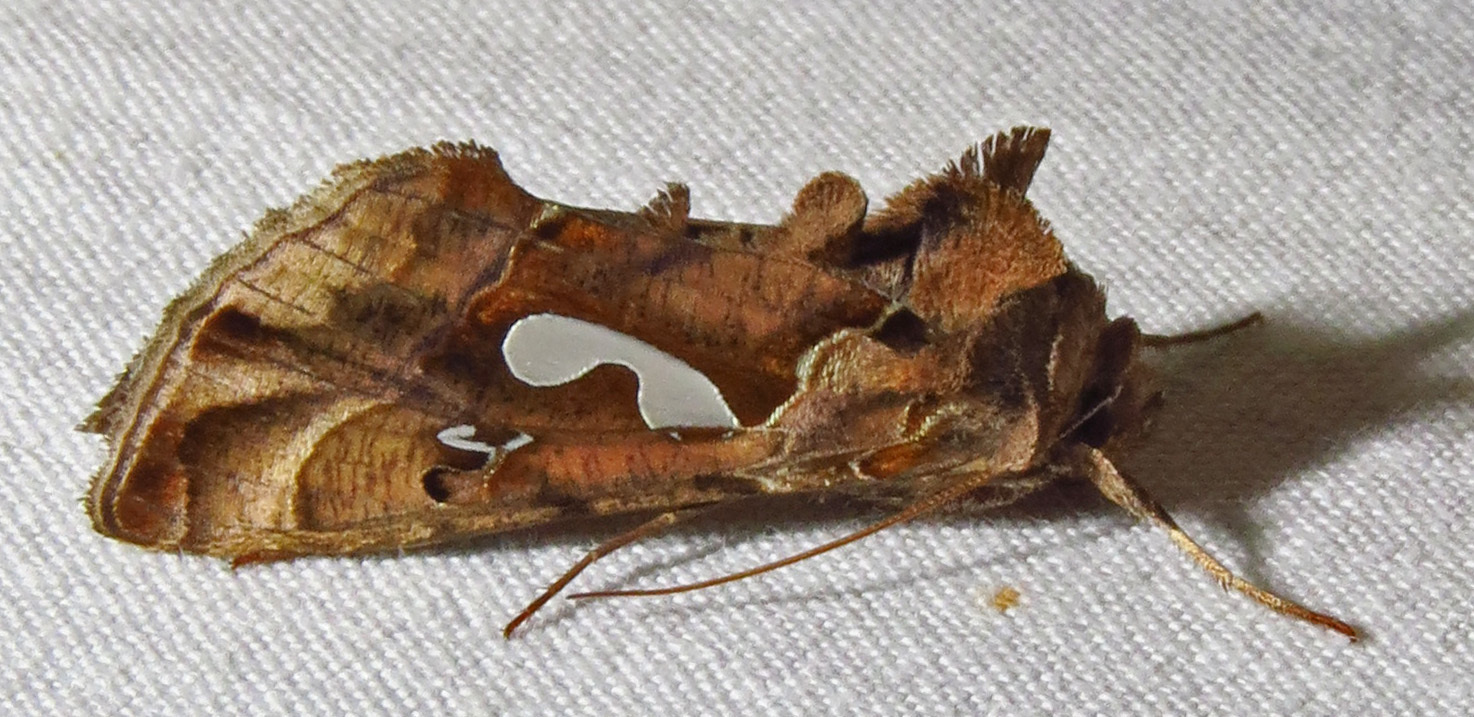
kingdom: Animalia
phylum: Arthropoda
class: Insecta
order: Lepidoptera
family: Noctuidae
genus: Megalographa
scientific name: Megalographa biloba
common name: Cutworm
